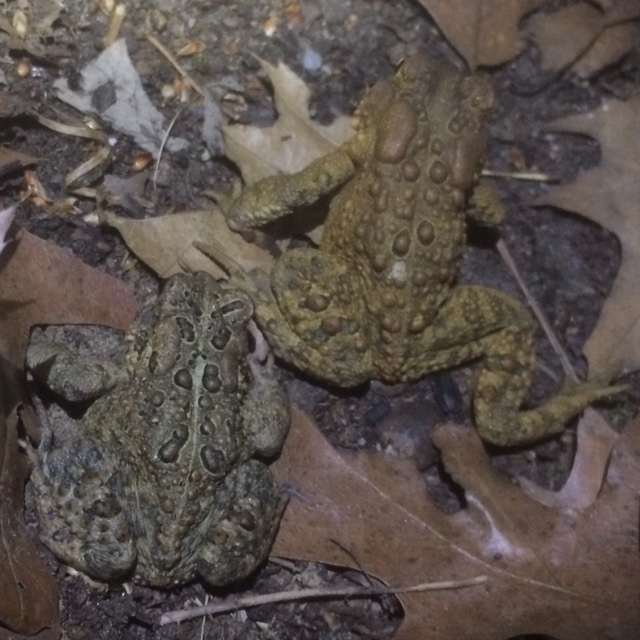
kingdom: Animalia
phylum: Chordata
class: Amphibia
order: Anura
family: Bufonidae
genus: Anaxyrus
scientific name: Anaxyrus americanus
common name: American toad
